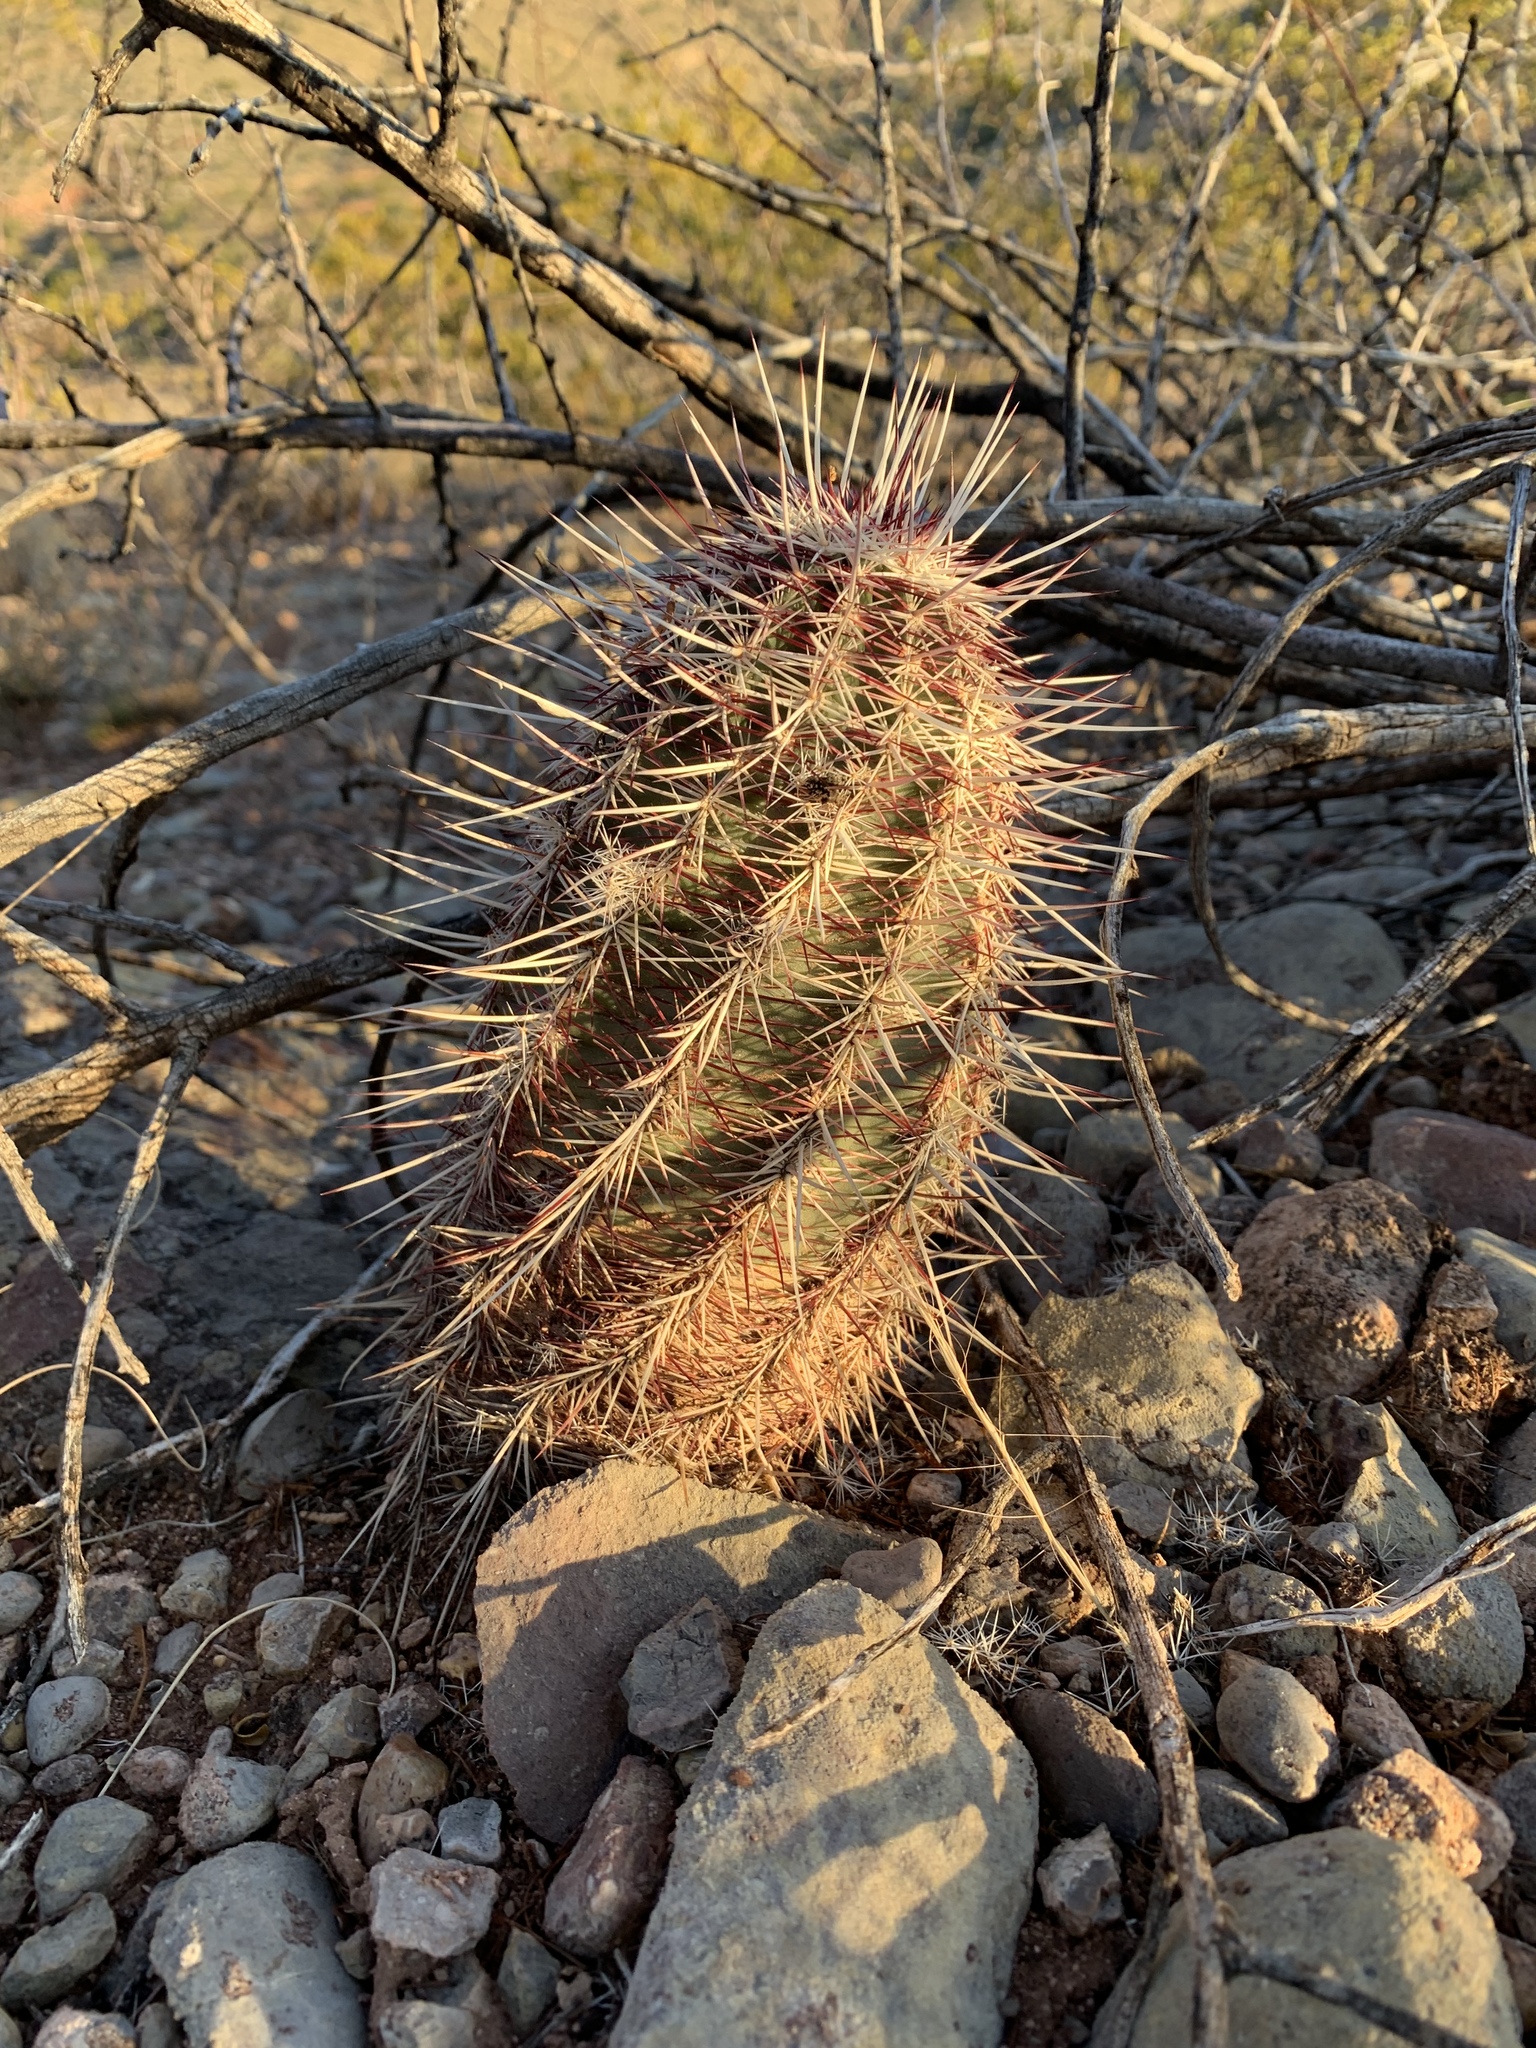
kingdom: Plantae
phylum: Tracheophyta
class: Magnoliopsida
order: Caryophyllales
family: Cactaceae
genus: Echinocereus
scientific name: Echinocereus viridiflorus
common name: Nylon hedgehog cactus
